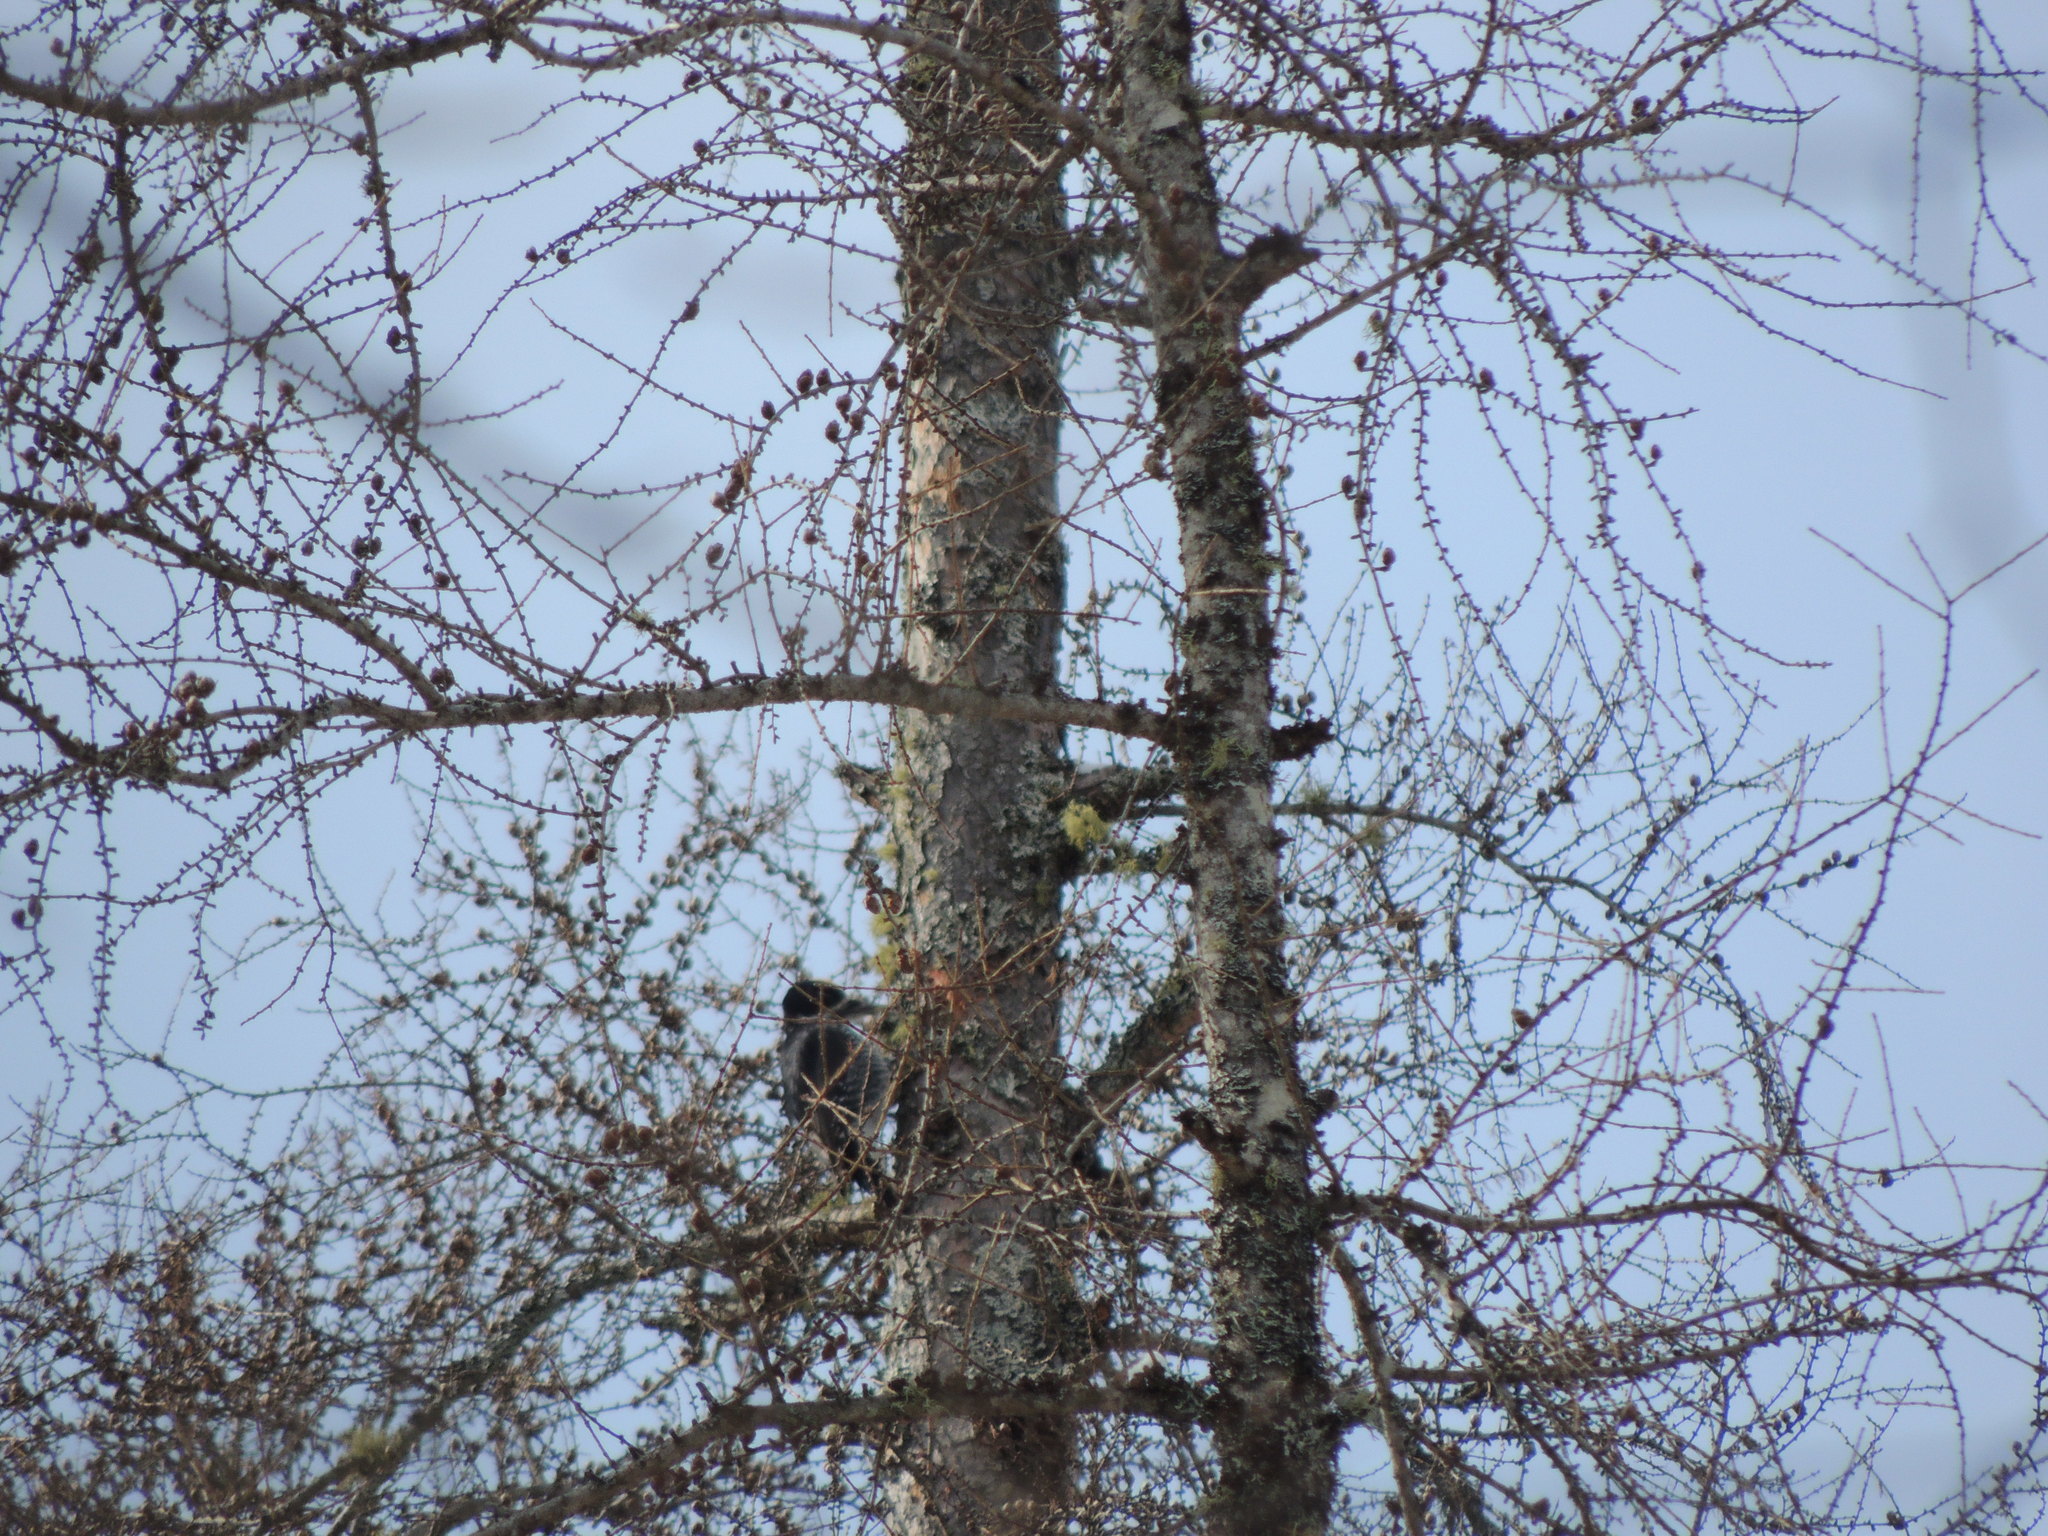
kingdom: Animalia
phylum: Chordata
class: Aves
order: Piciformes
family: Picidae
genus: Picoides
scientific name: Picoides arcticus
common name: Black-backed woodpecker
